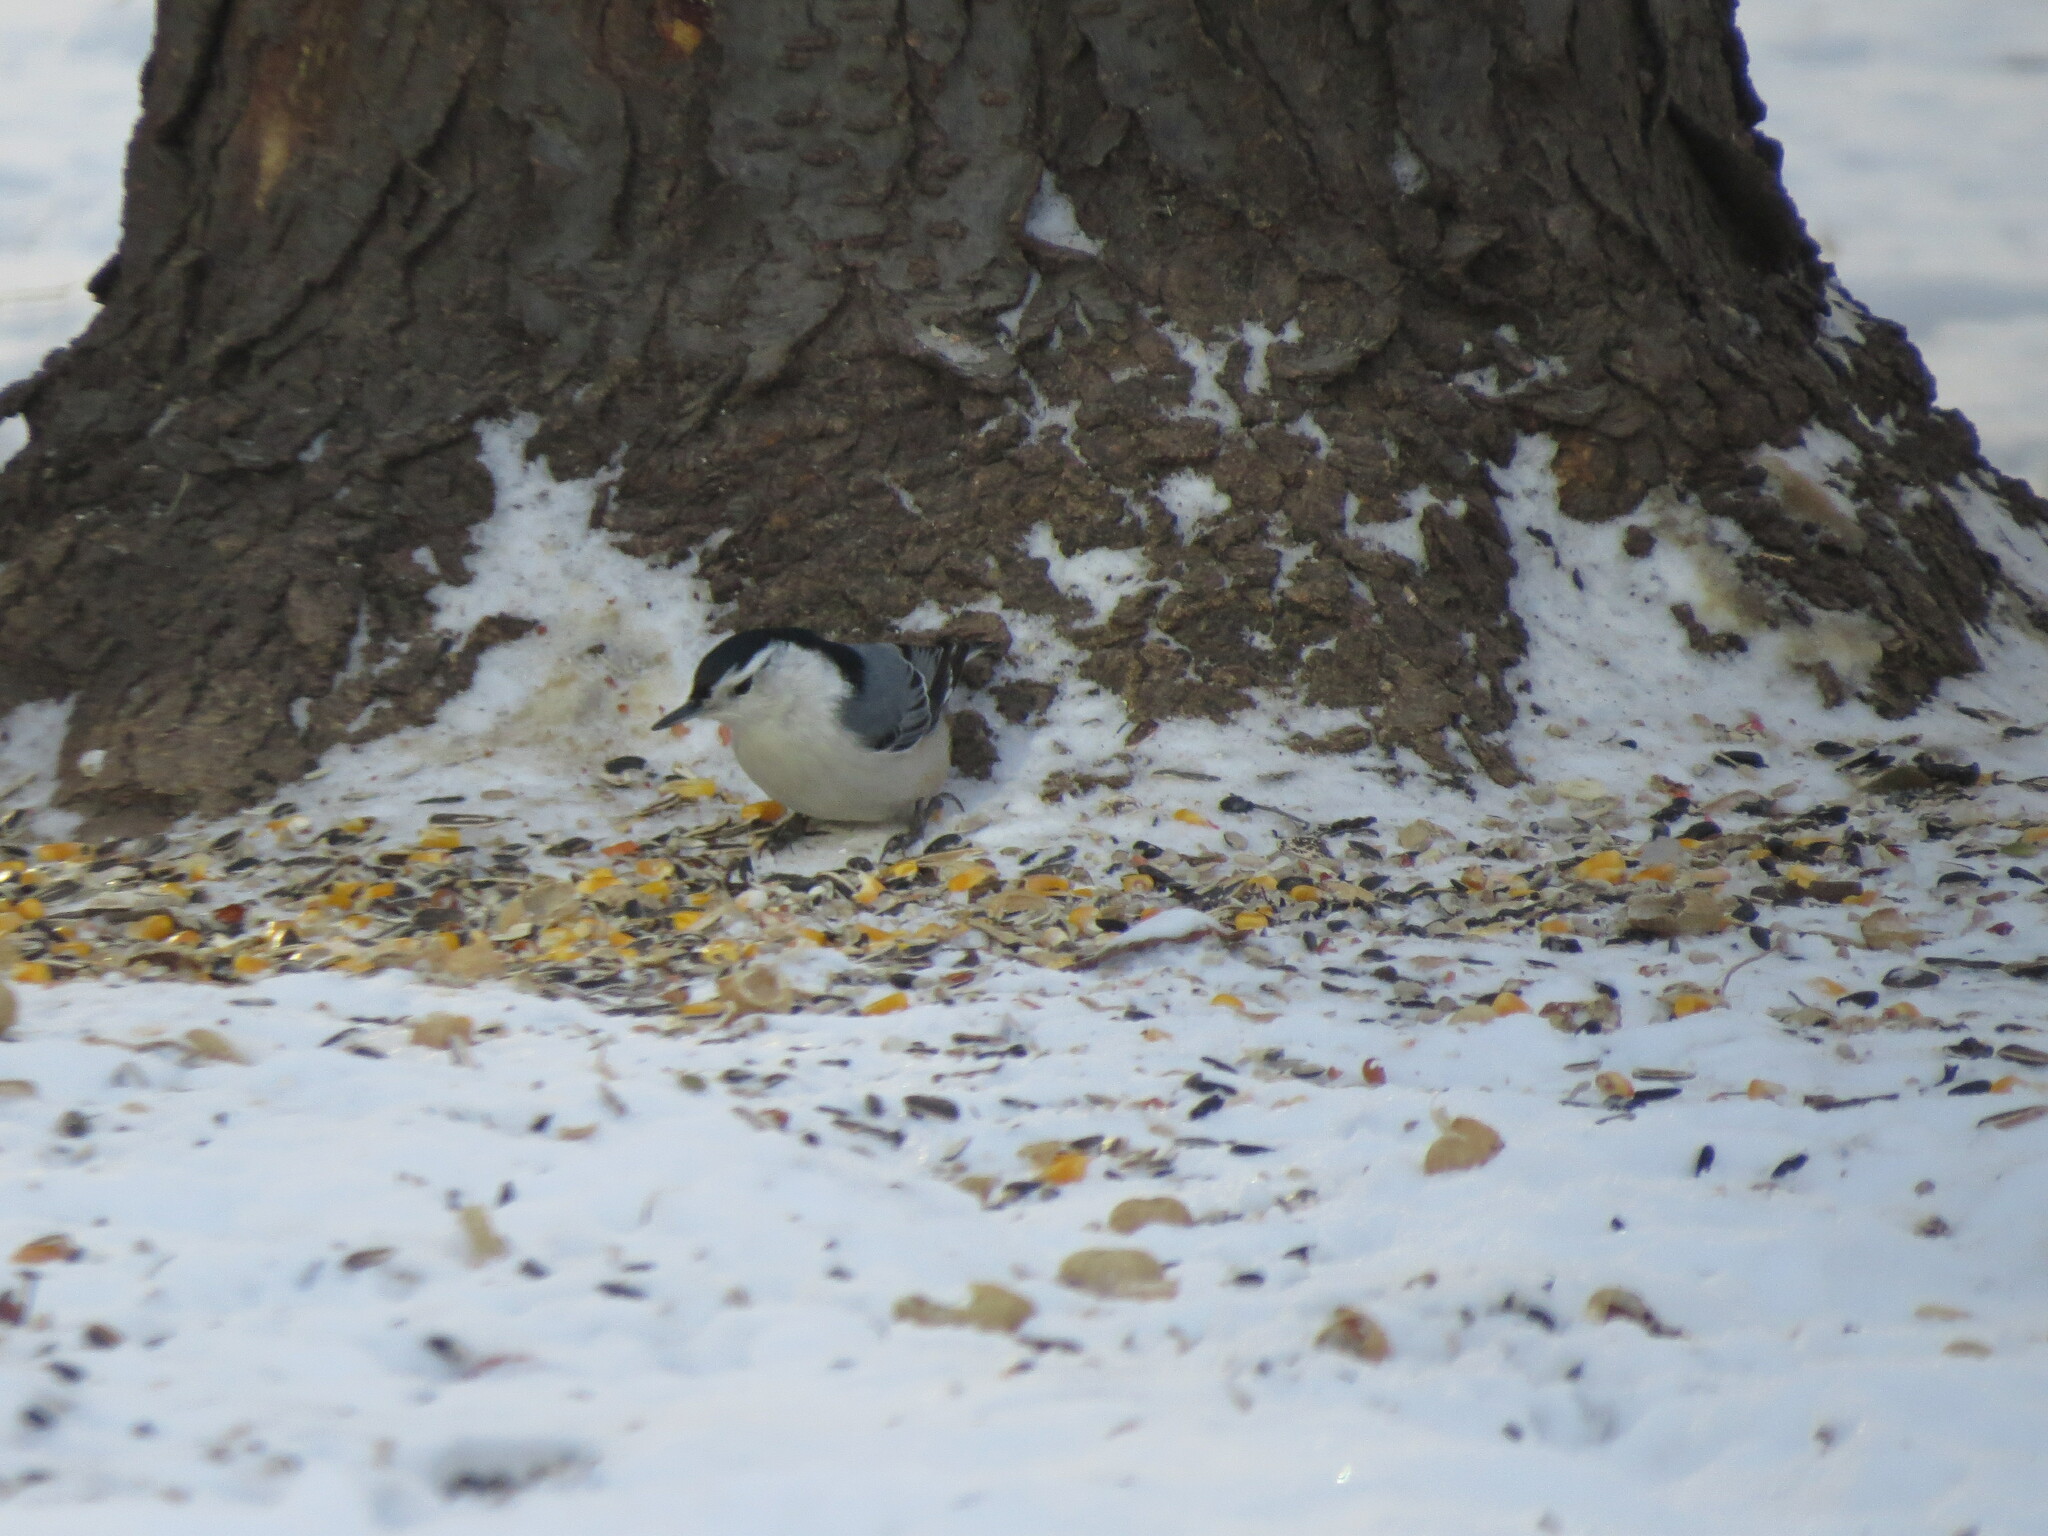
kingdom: Animalia
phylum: Chordata
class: Aves
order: Passeriformes
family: Sittidae
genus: Sitta
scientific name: Sitta carolinensis
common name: White-breasted nuthatch
